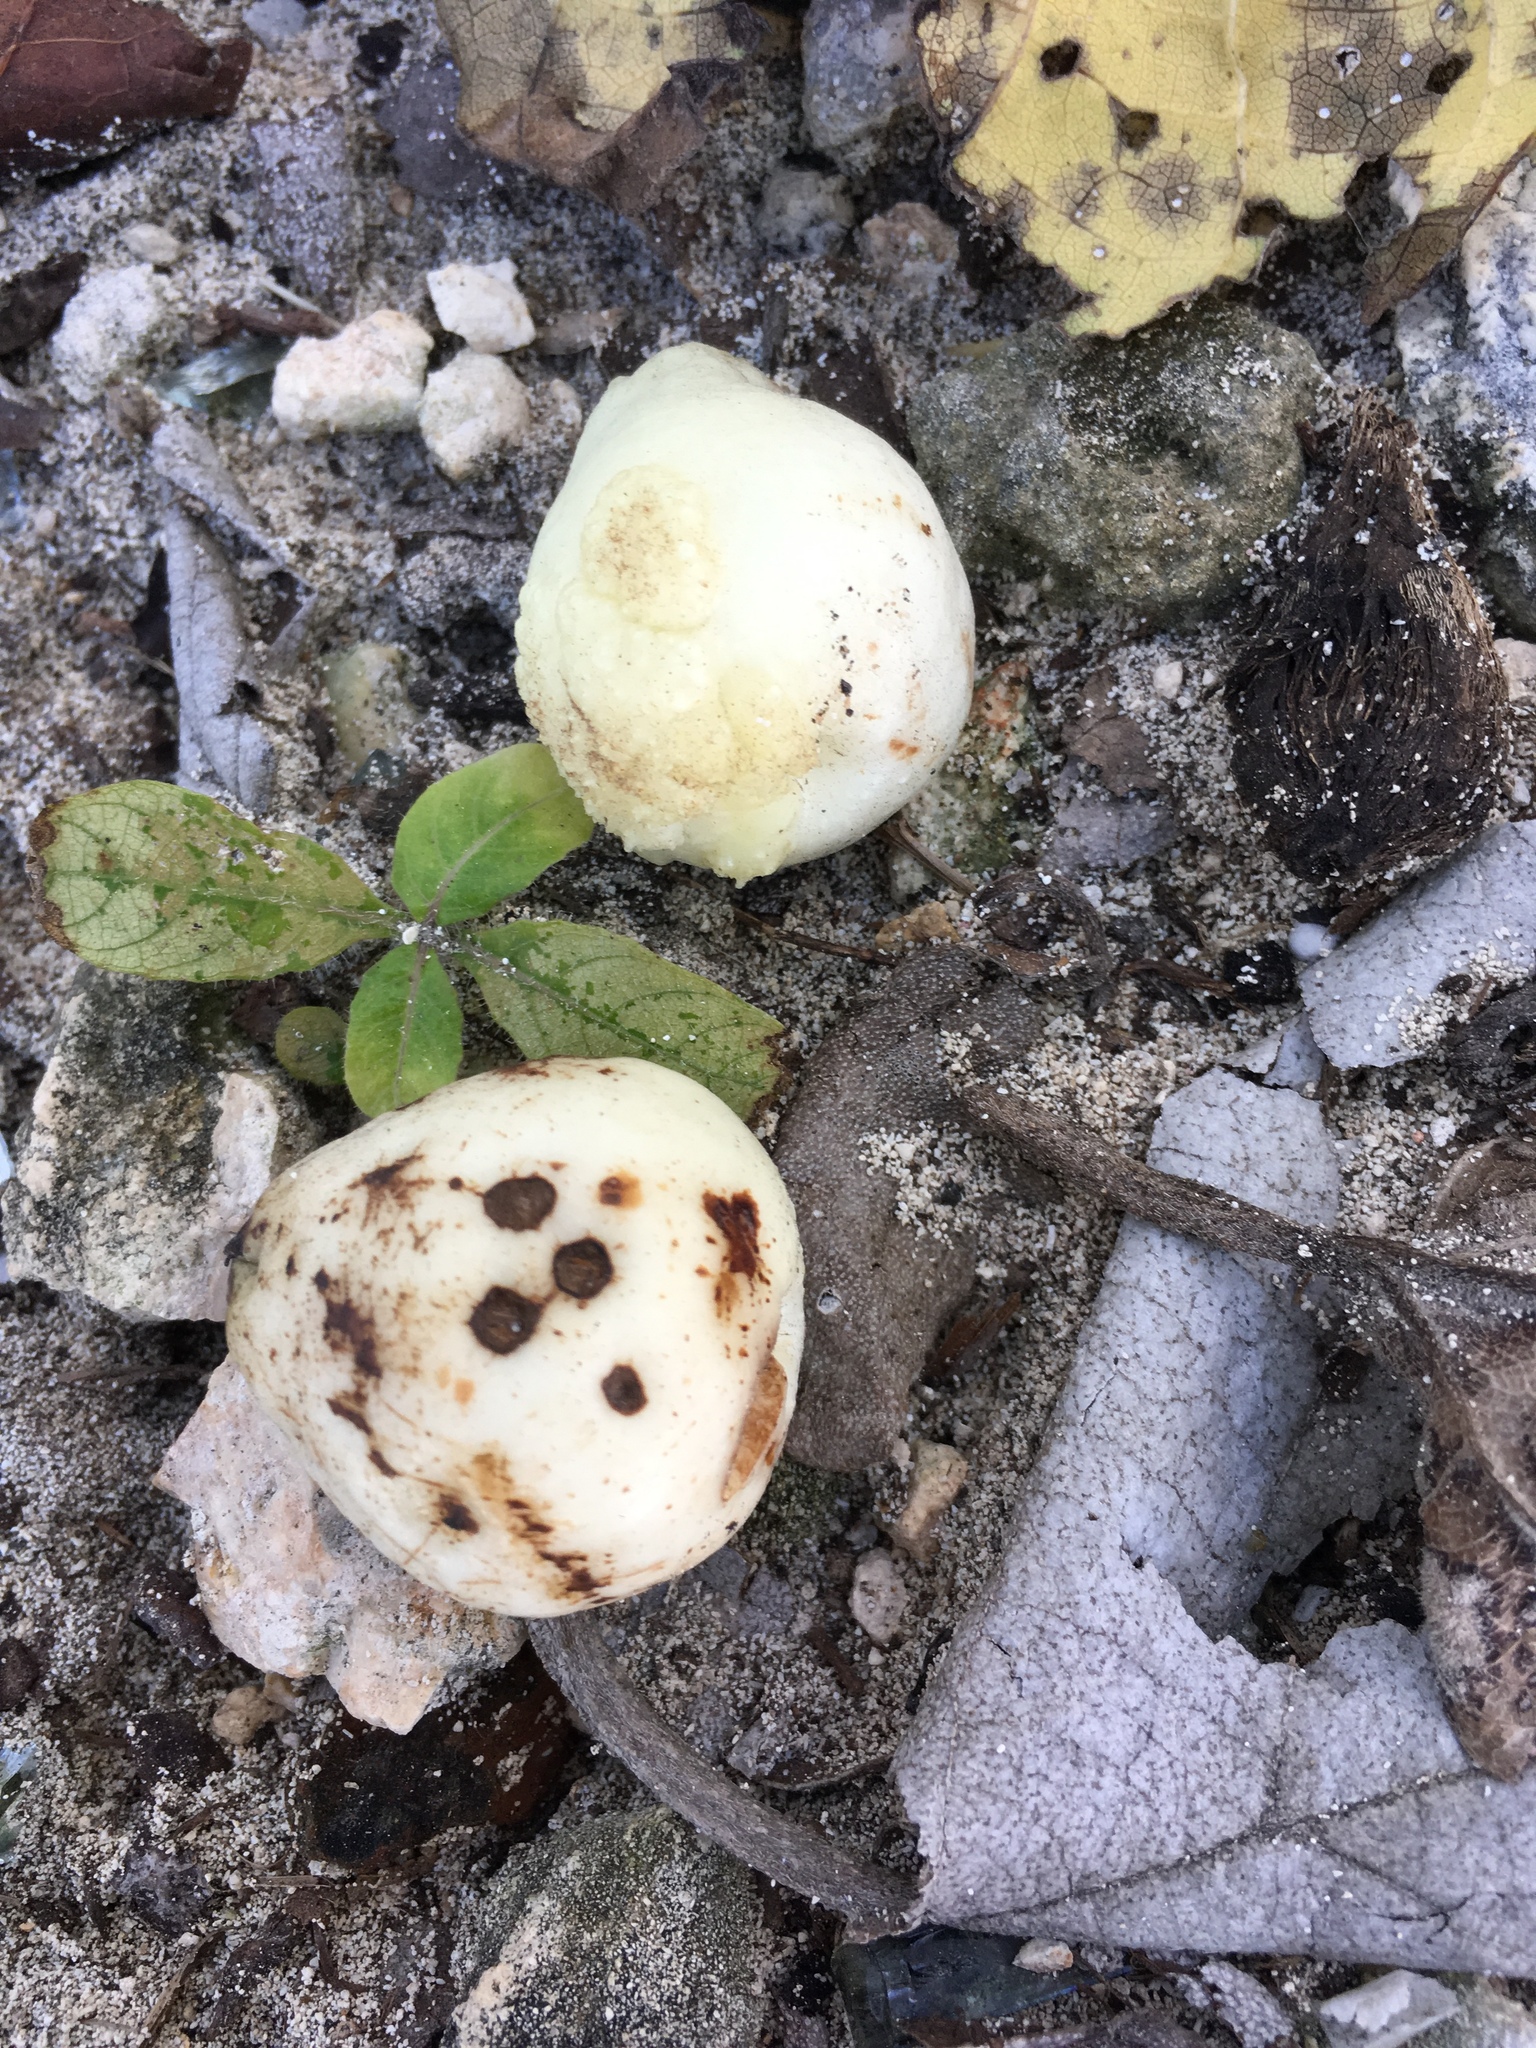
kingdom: Plantae
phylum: Tracheophyta
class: Magnoliopsida
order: Boraginales
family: Cordiaceae
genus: Cordia
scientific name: Cordia sebestena
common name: Largeleaf geigertree
